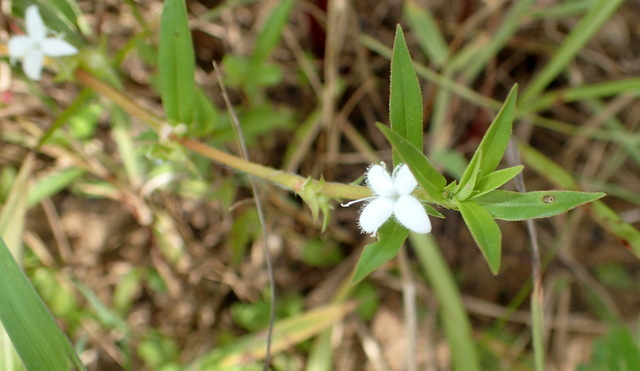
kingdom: Plantae
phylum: Tracheophyta
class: Magnoliopsida
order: Gentianales
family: Rubiaceae
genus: Diodia
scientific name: Diodia virginiana
